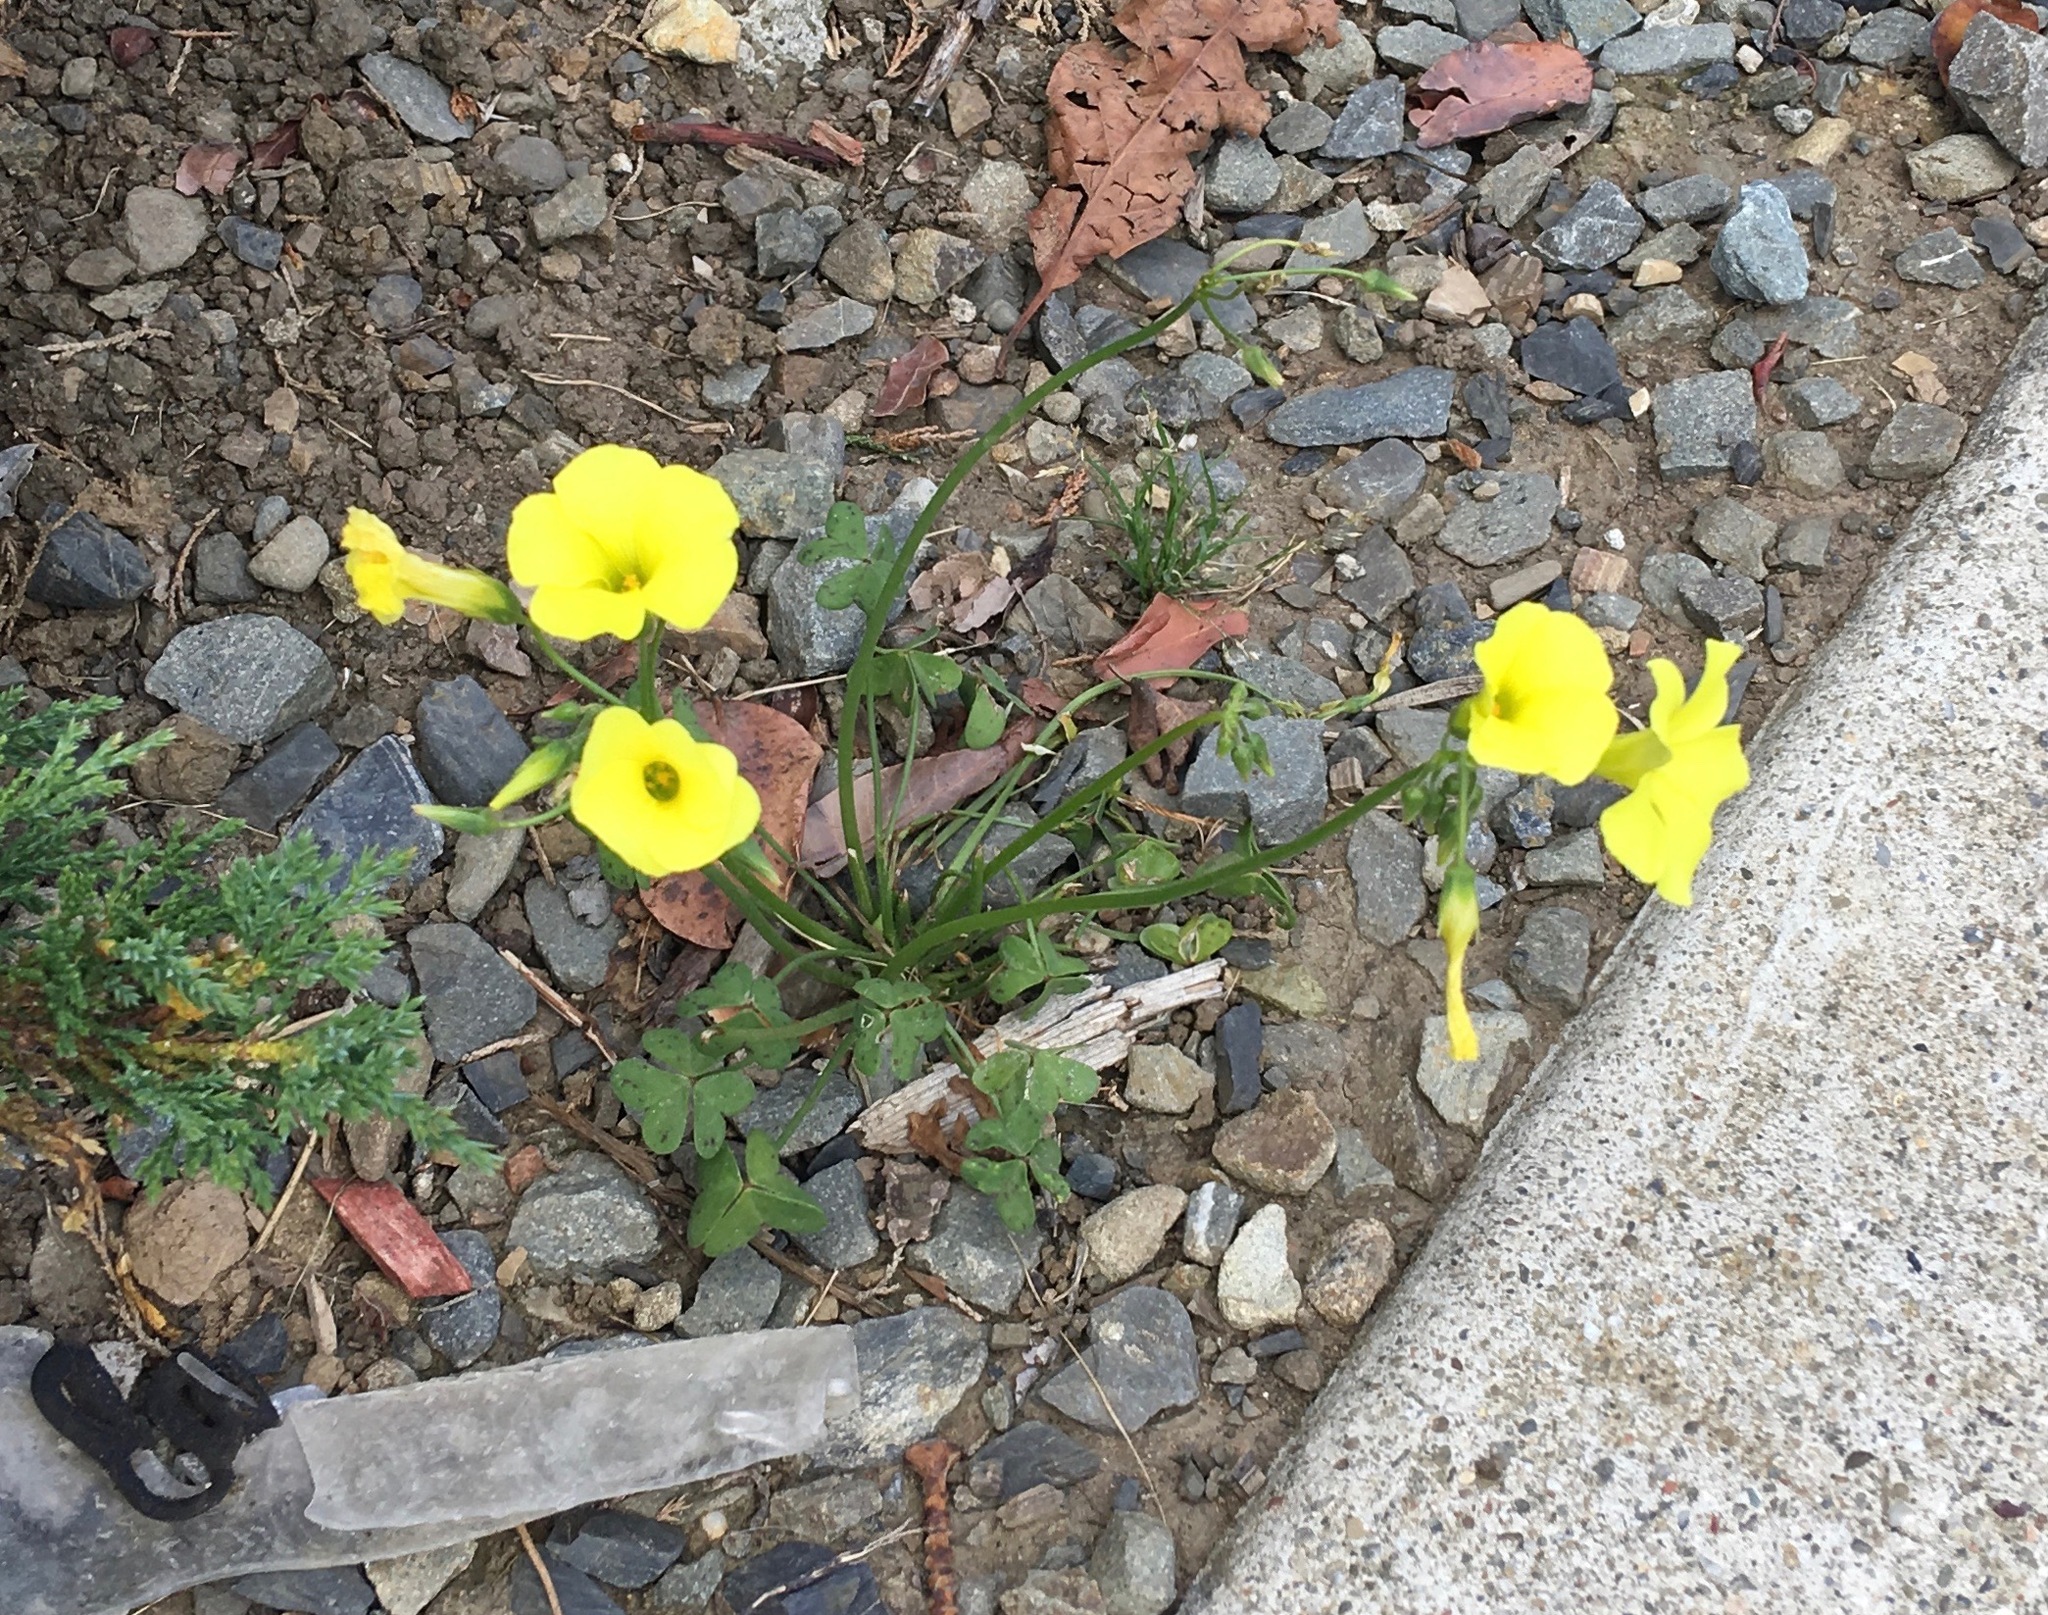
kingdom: Plantae
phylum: Tracheophyta
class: Magnoliopsida
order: Oxalidales
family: Oxalidaceae
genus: Oxalis
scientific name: Oxalis pes-caprae
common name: Bermuda-buttercup
